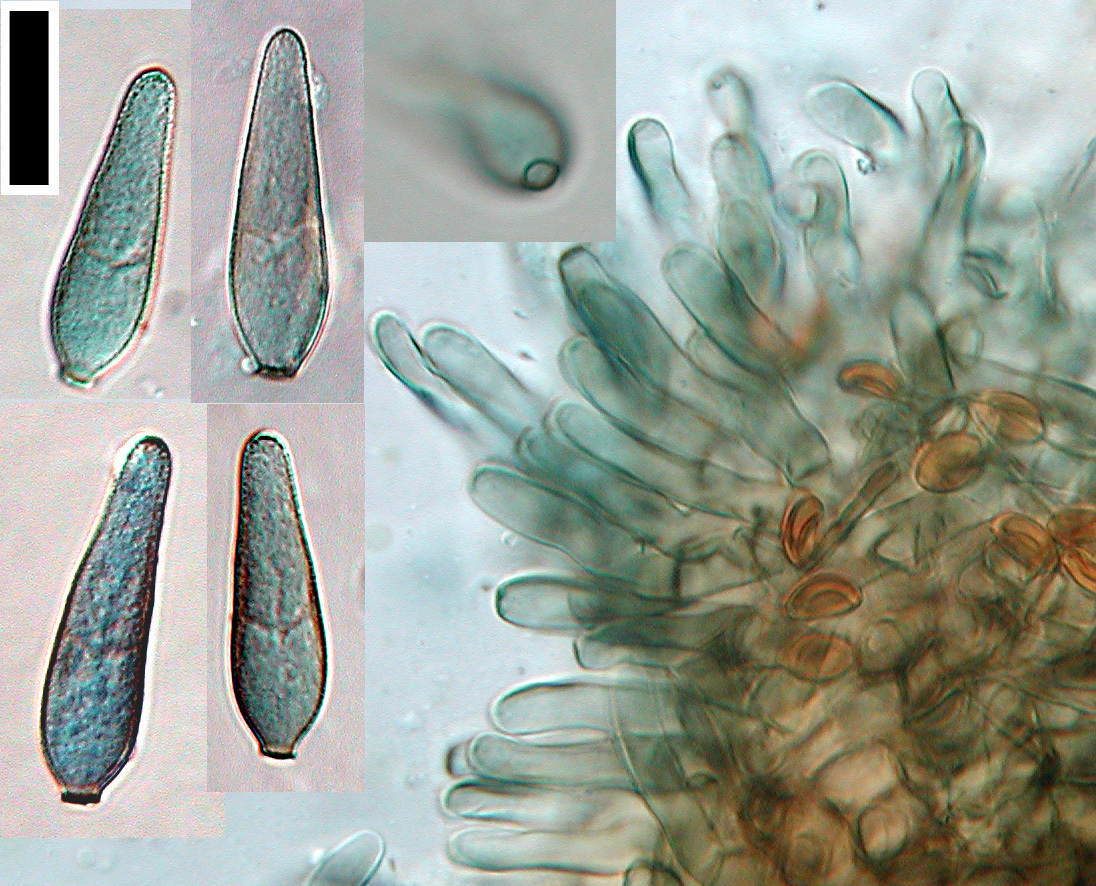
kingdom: Fungi
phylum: Ascomycota
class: Dothideomycetes
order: Mycosphaerellales
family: Mycosphaerellaceae
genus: Graminopassalora
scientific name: Graminopassalora graminis
